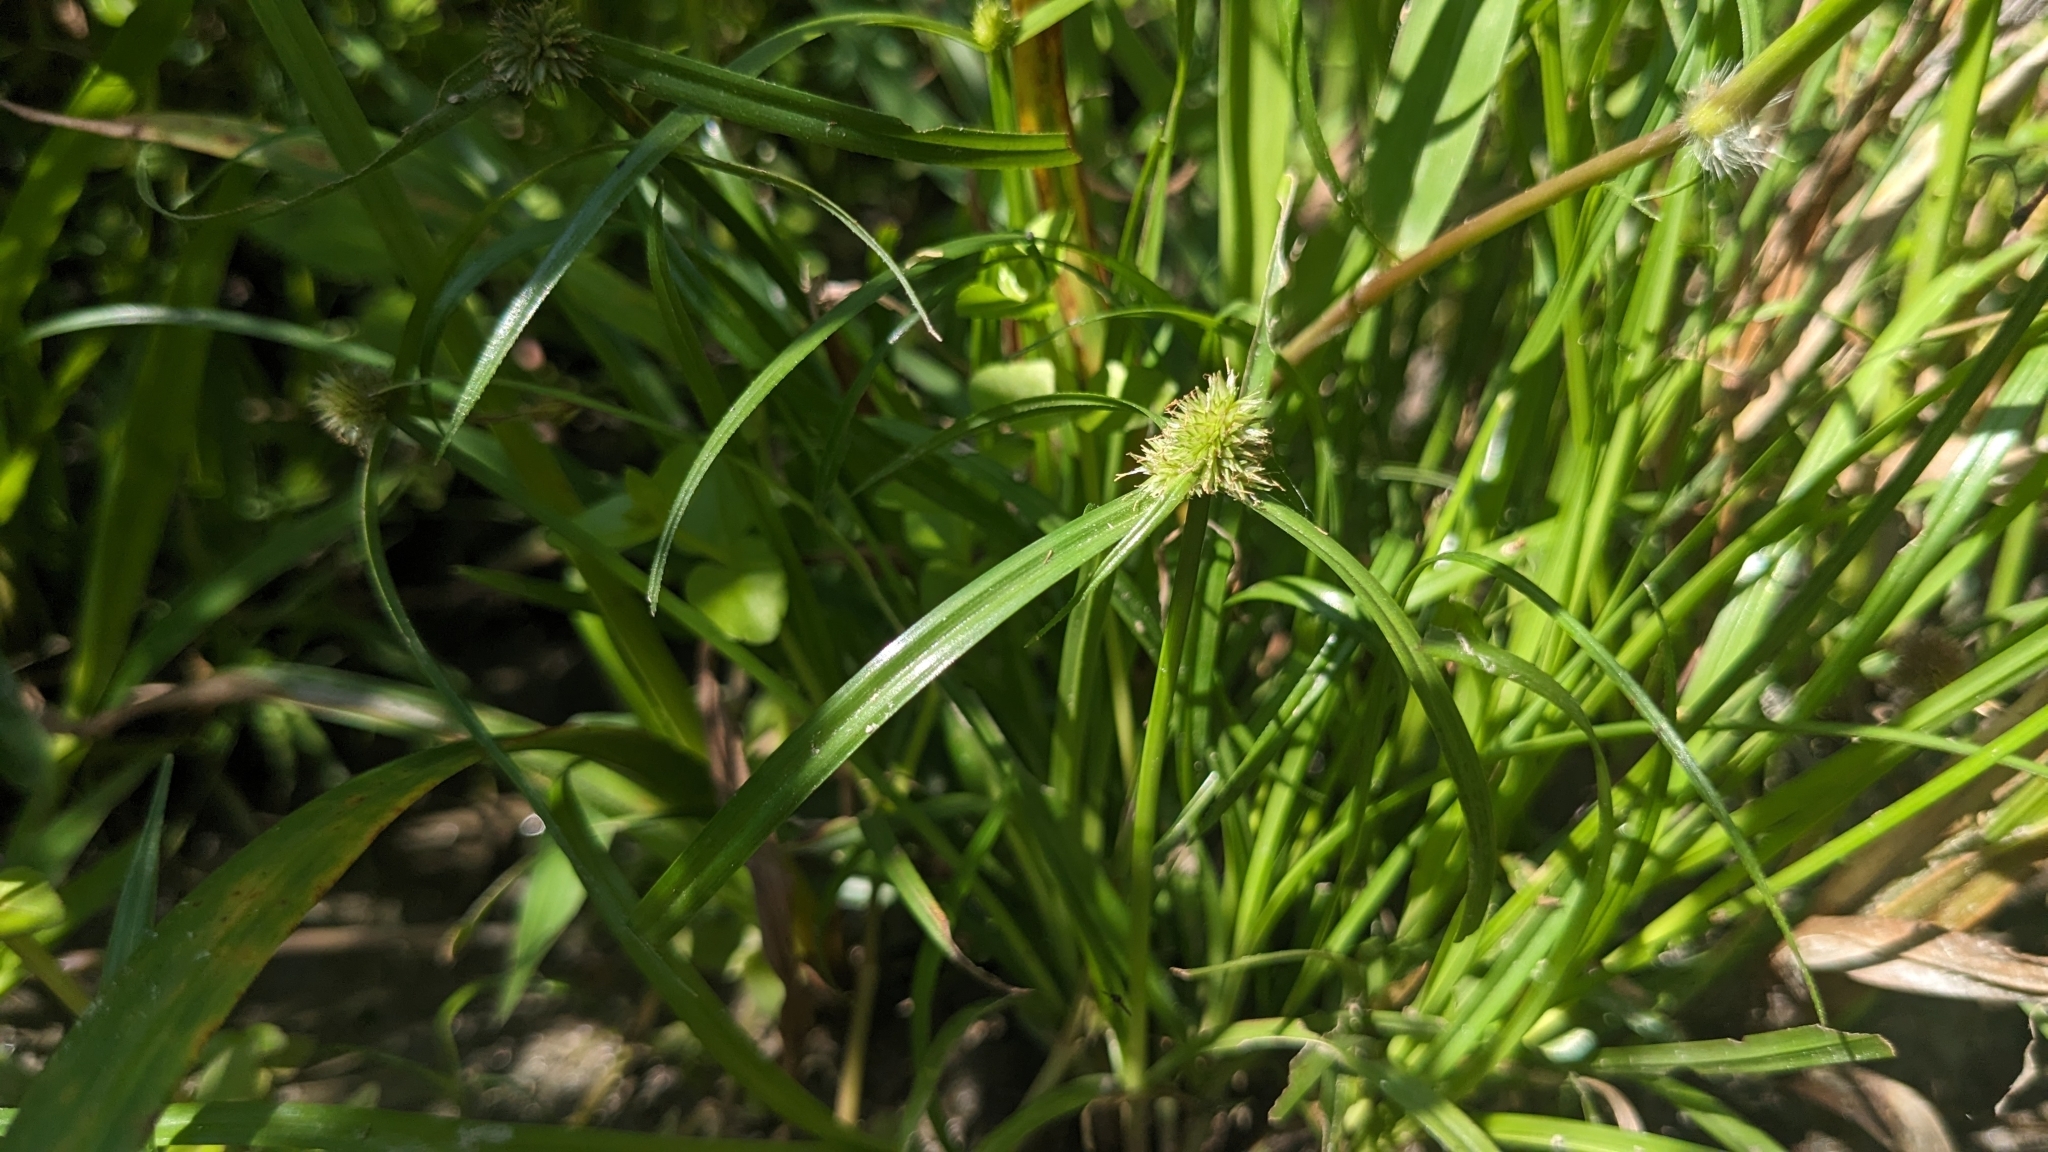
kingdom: Plantae
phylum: Tracheophyta
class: Liliopsida
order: Poales
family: Cyperaceae
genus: Cyperus
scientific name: Cyperus brevifolius
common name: Globe kyllinga
